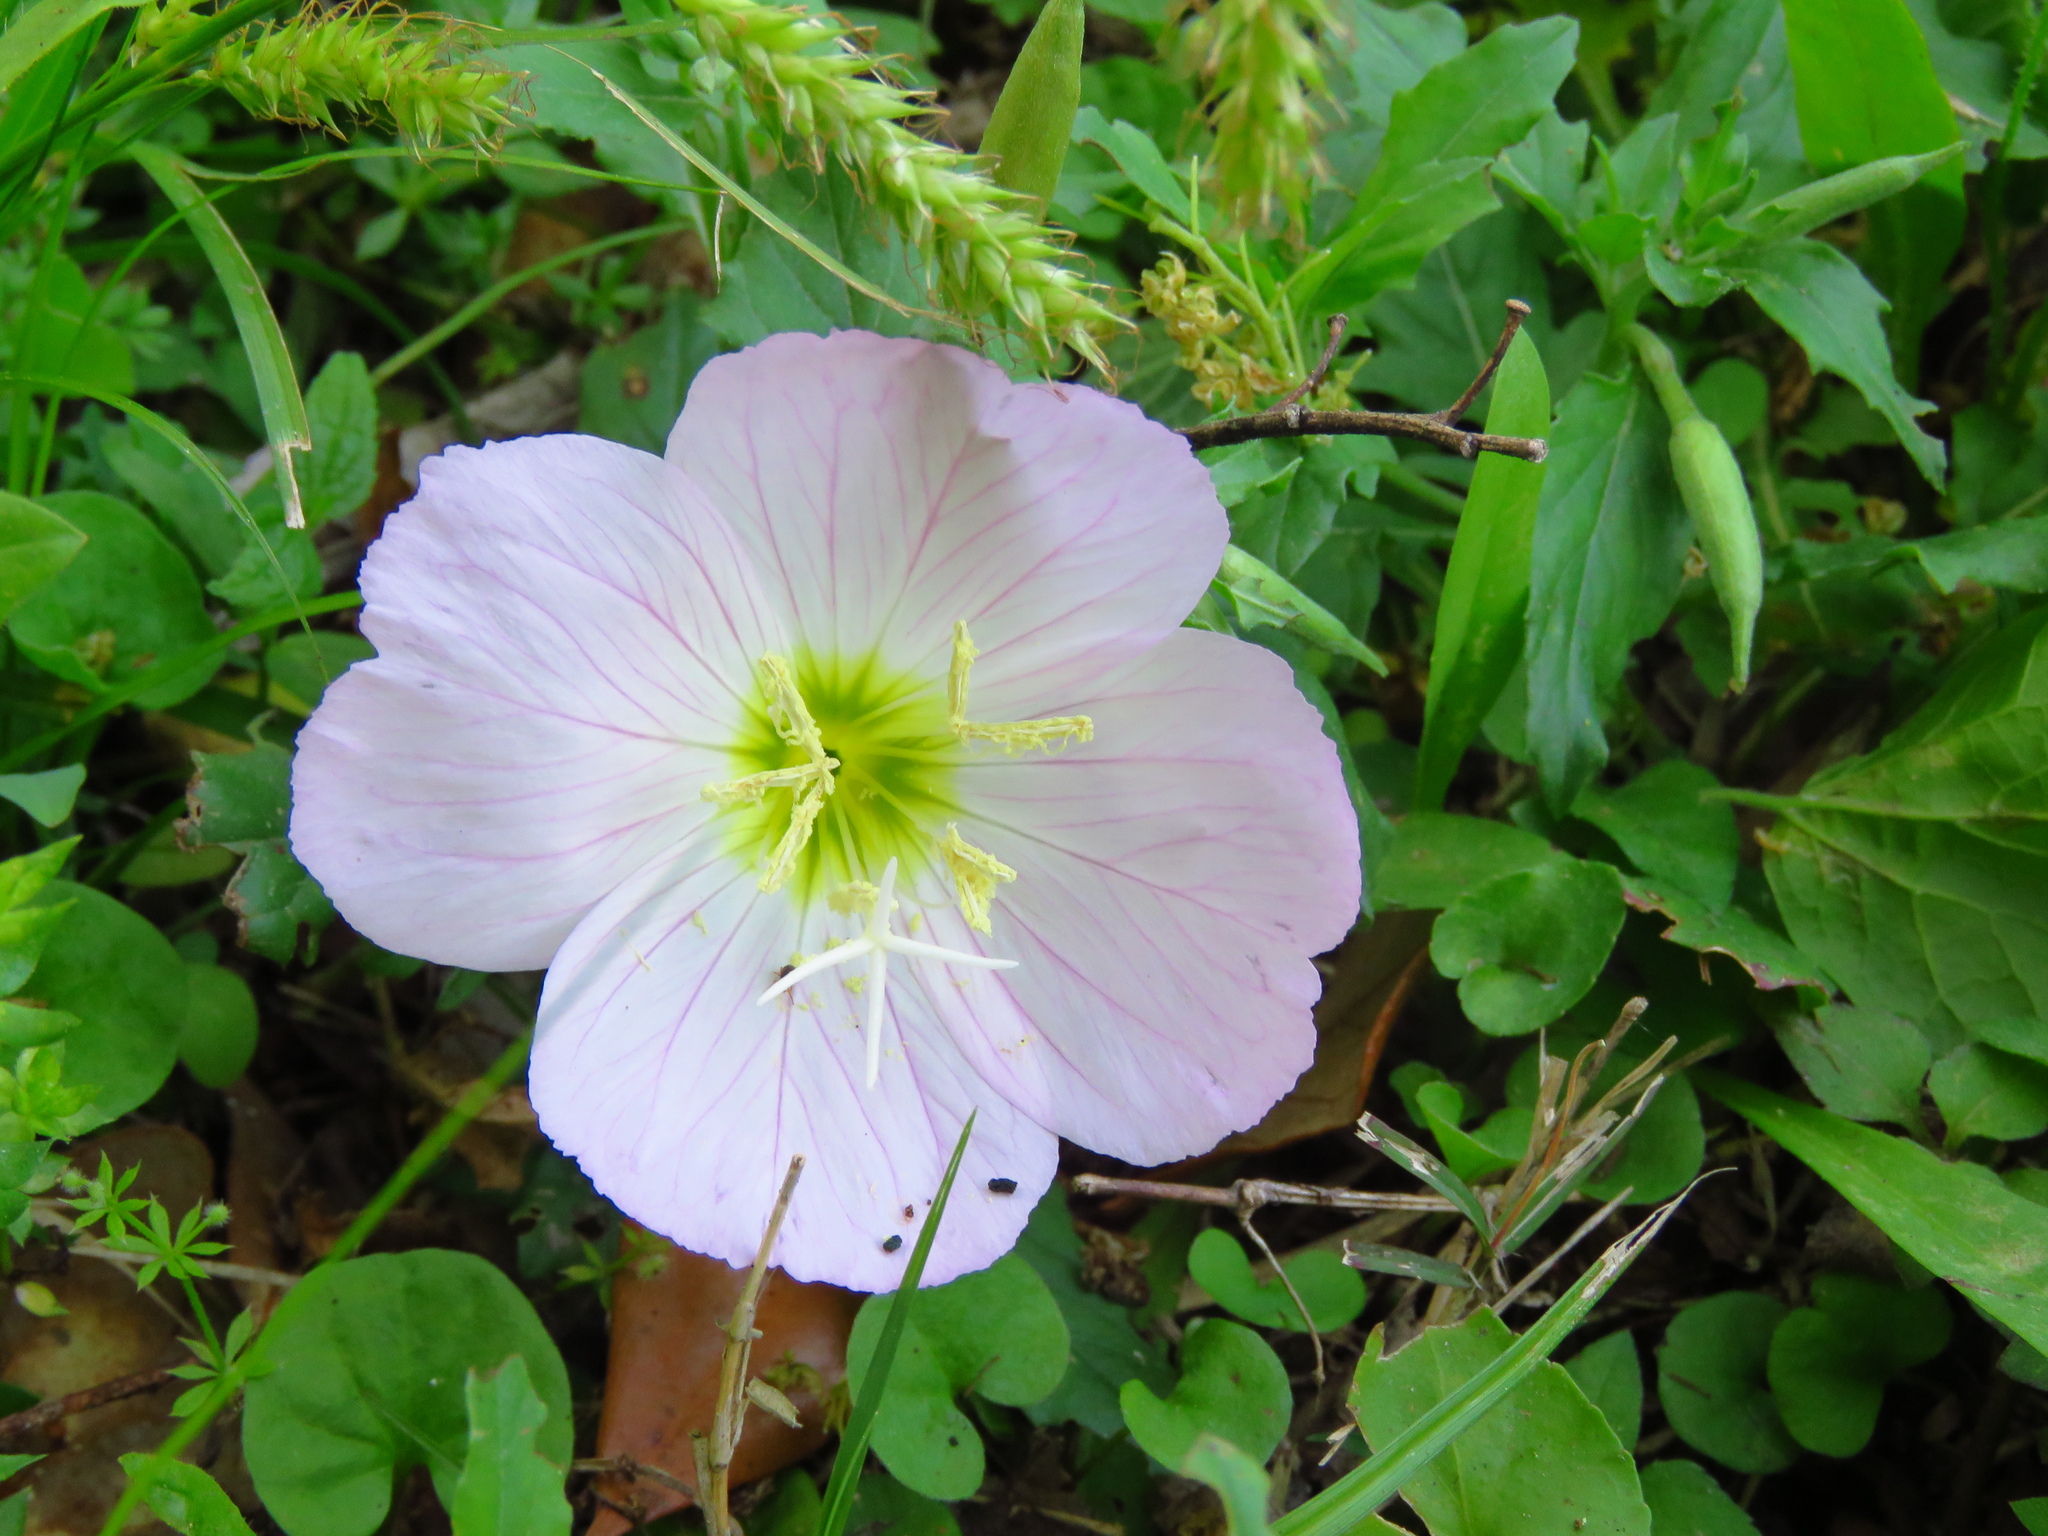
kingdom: Plantae
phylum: Tracheophyta
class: Magnoliopsida
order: Myrtales
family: Onagraceae
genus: Oenothera
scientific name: Oenothera speciosa
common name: White evening-primrose
